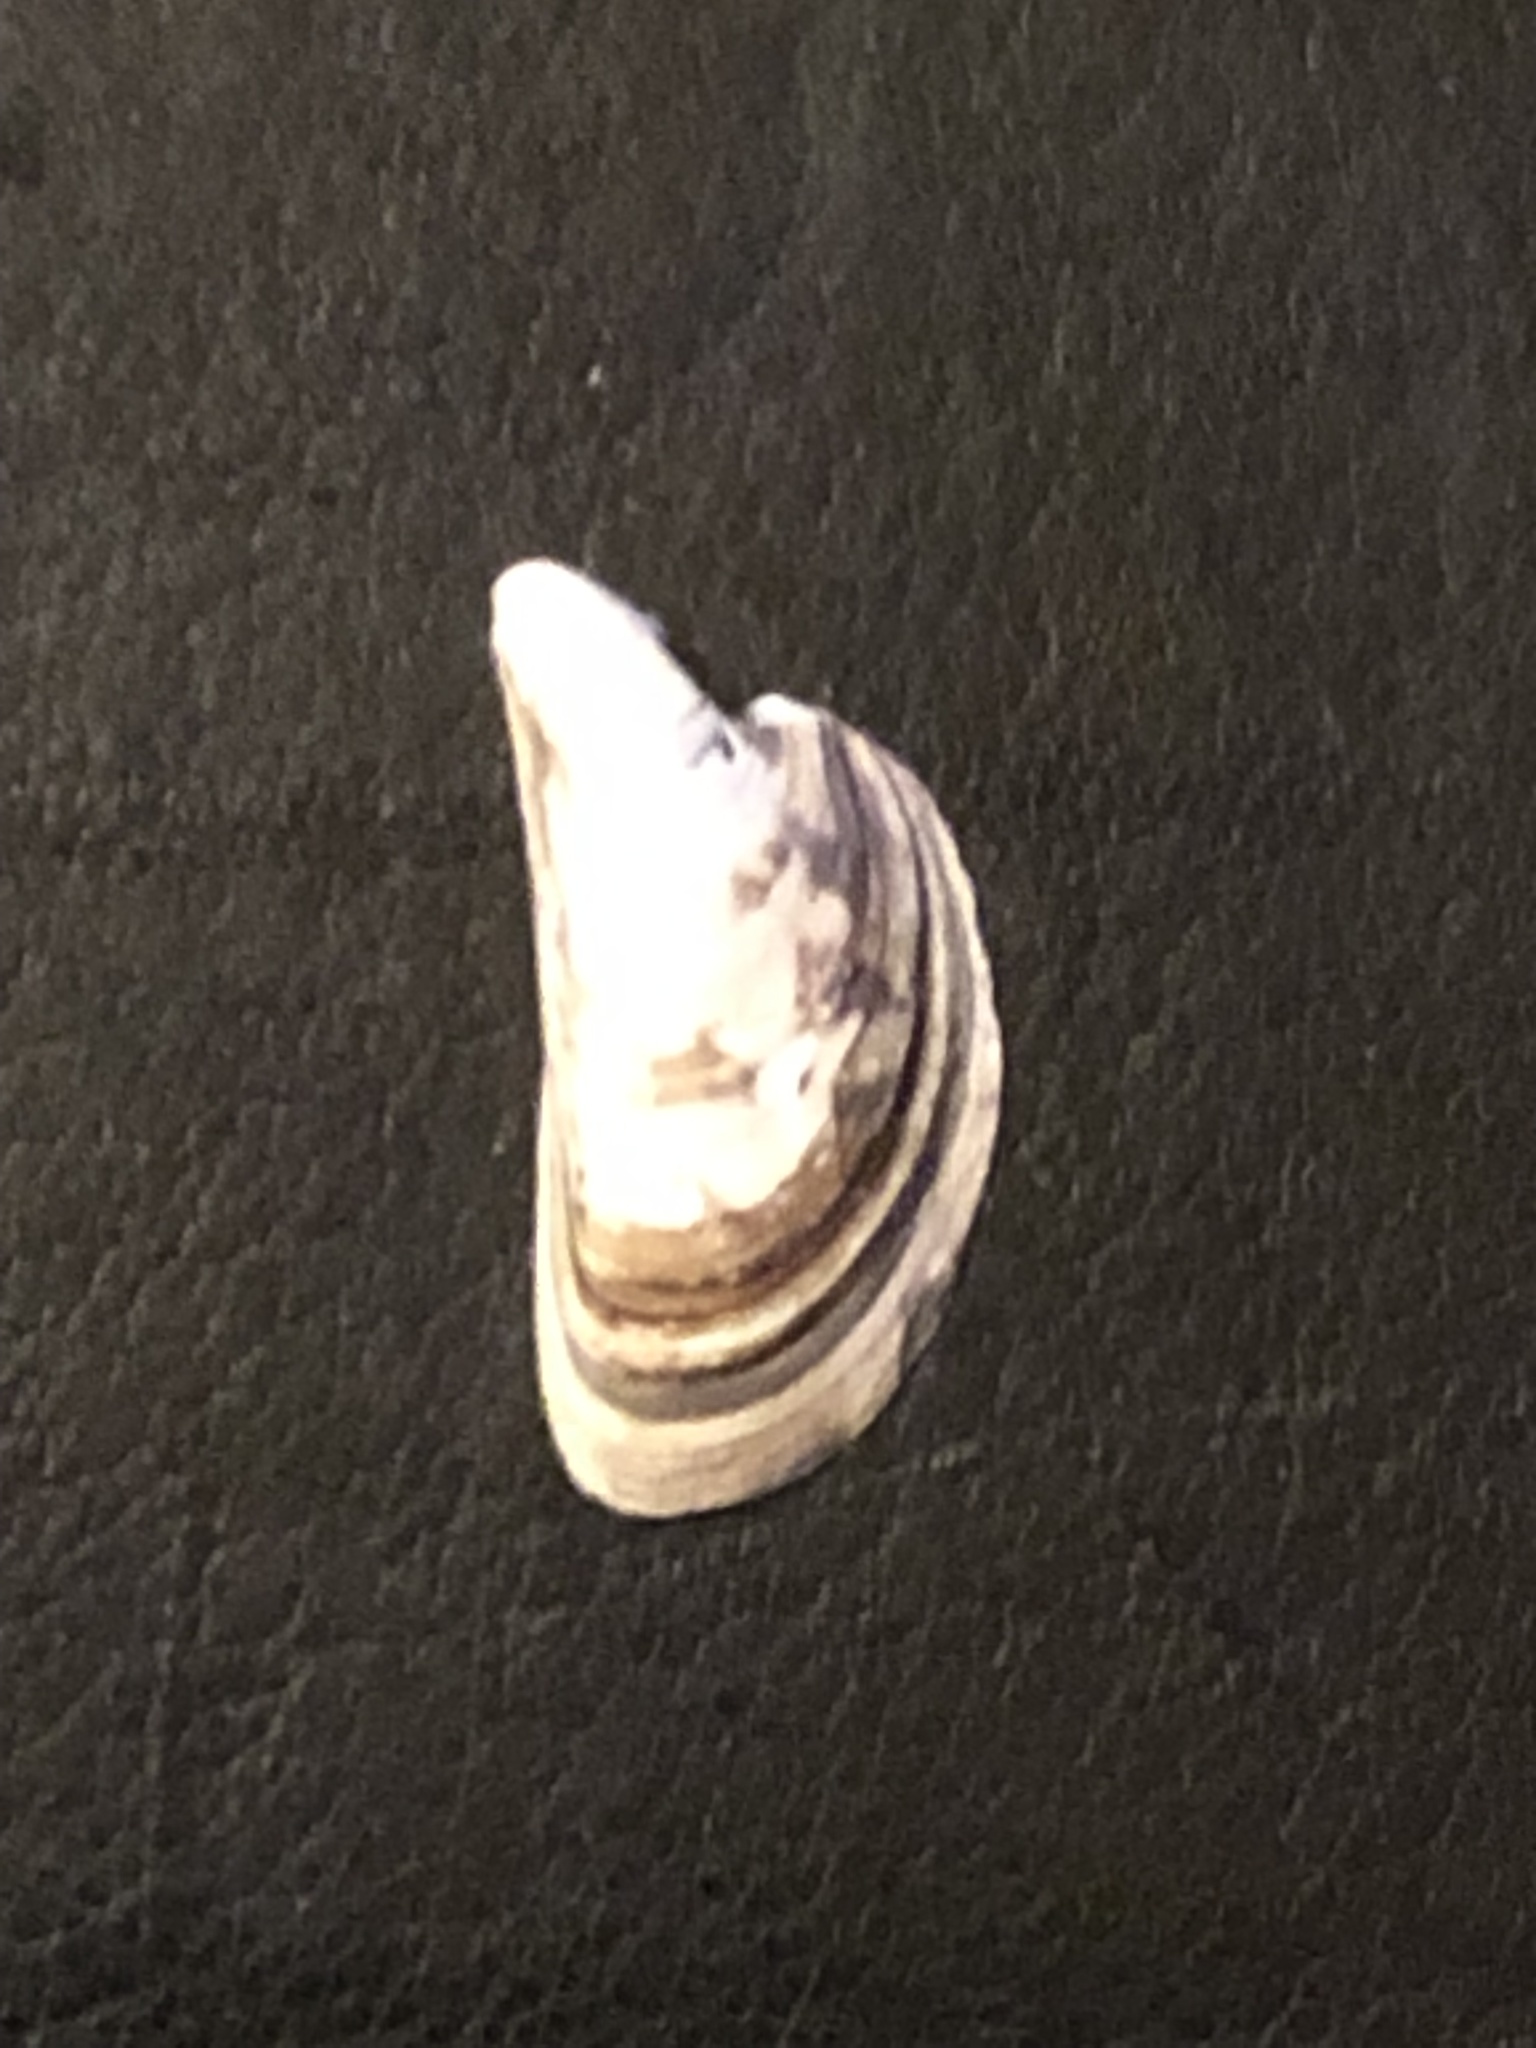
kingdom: Animalia
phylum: Mollusca
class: Bivalvia
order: Myida
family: Dreissenidae
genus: Dreissena
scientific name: Dreissena polymorpha
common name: Zebra mussel
